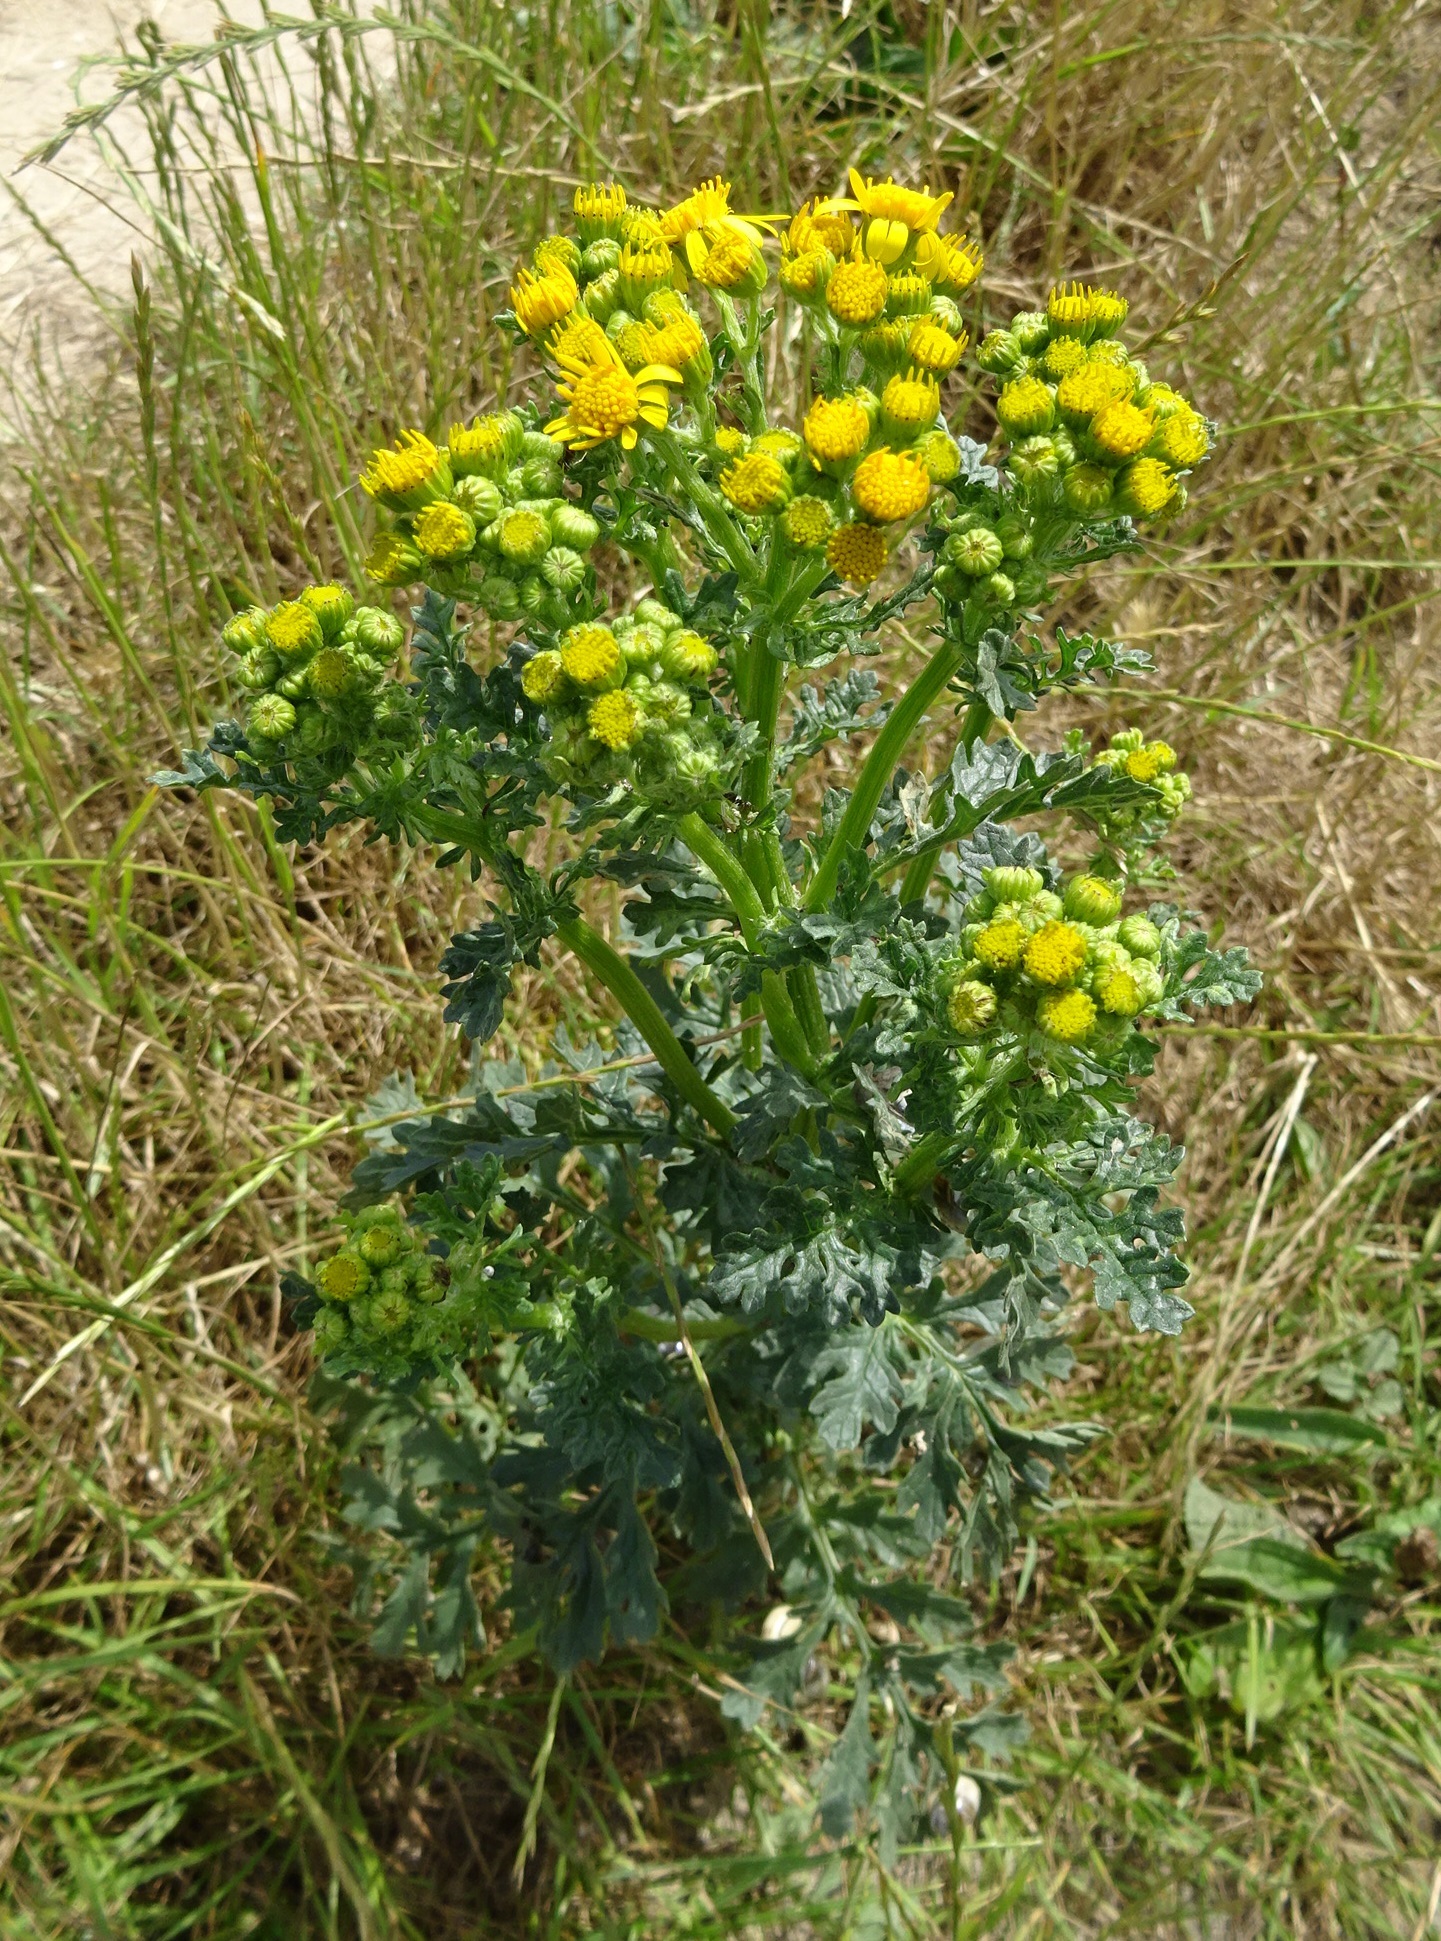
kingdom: Plantae
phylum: Tracheophyta
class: Magnoliopsida
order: Asterales
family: Asteraceae
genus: Jacobaea
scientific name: Jacobaea vulgaris
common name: Stinking willie
